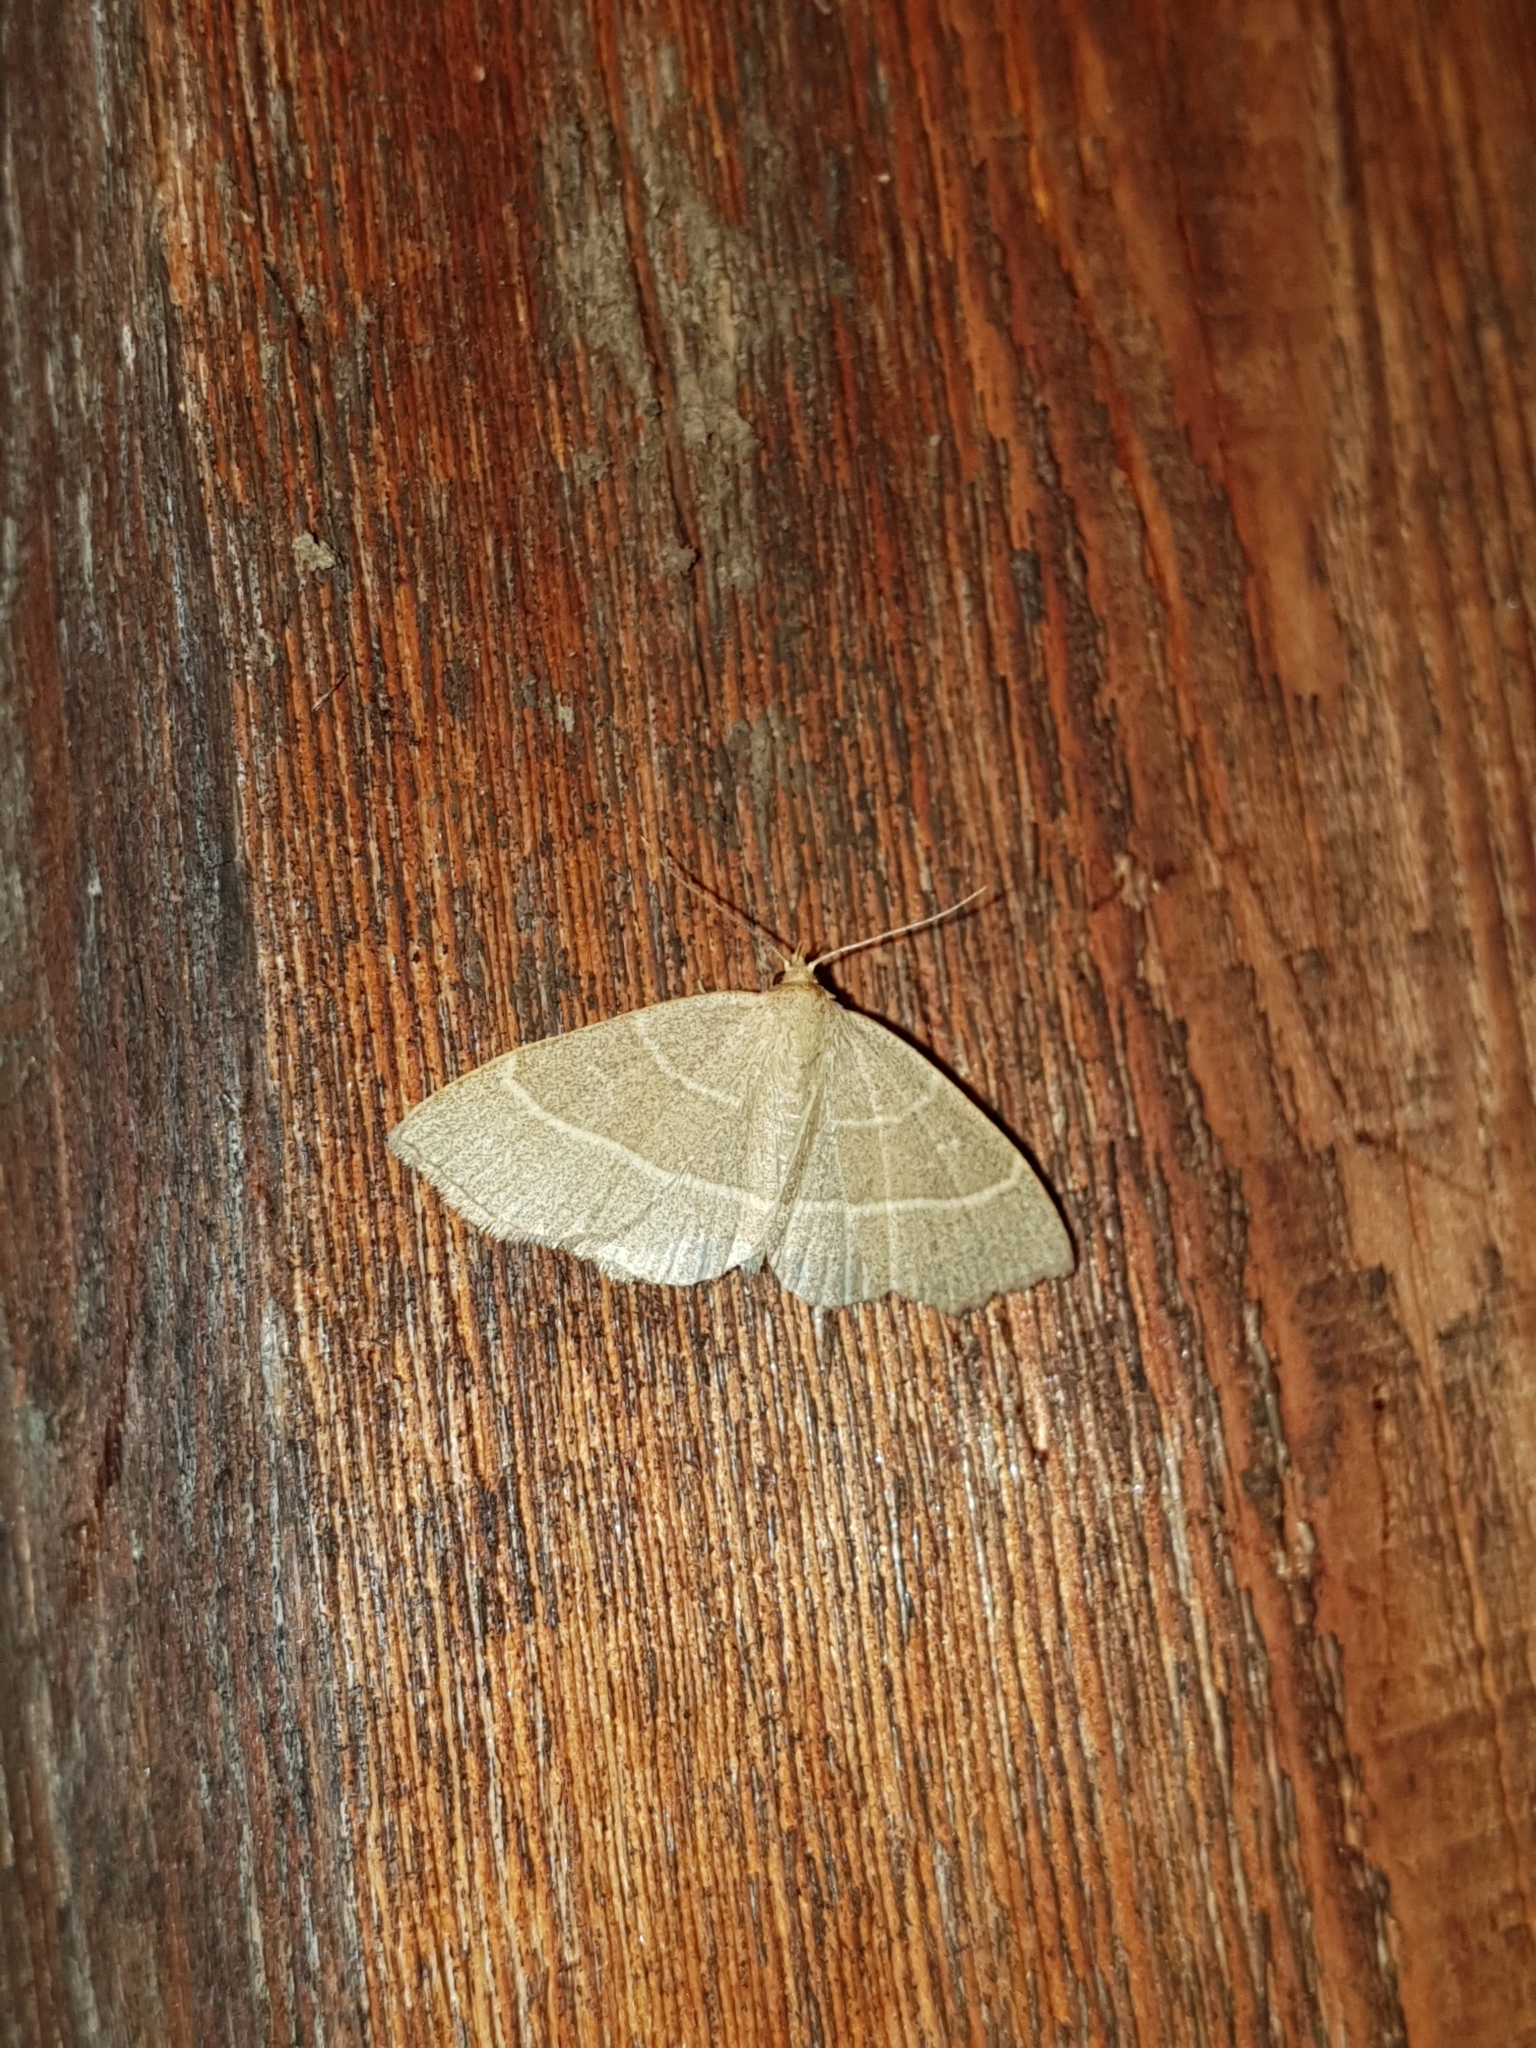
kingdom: Animalia
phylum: Arthropoda
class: Insecta
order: Lepidoptera
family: Erebidae
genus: Trisateles
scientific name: Trisateles emortualis
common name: Olive crescent
